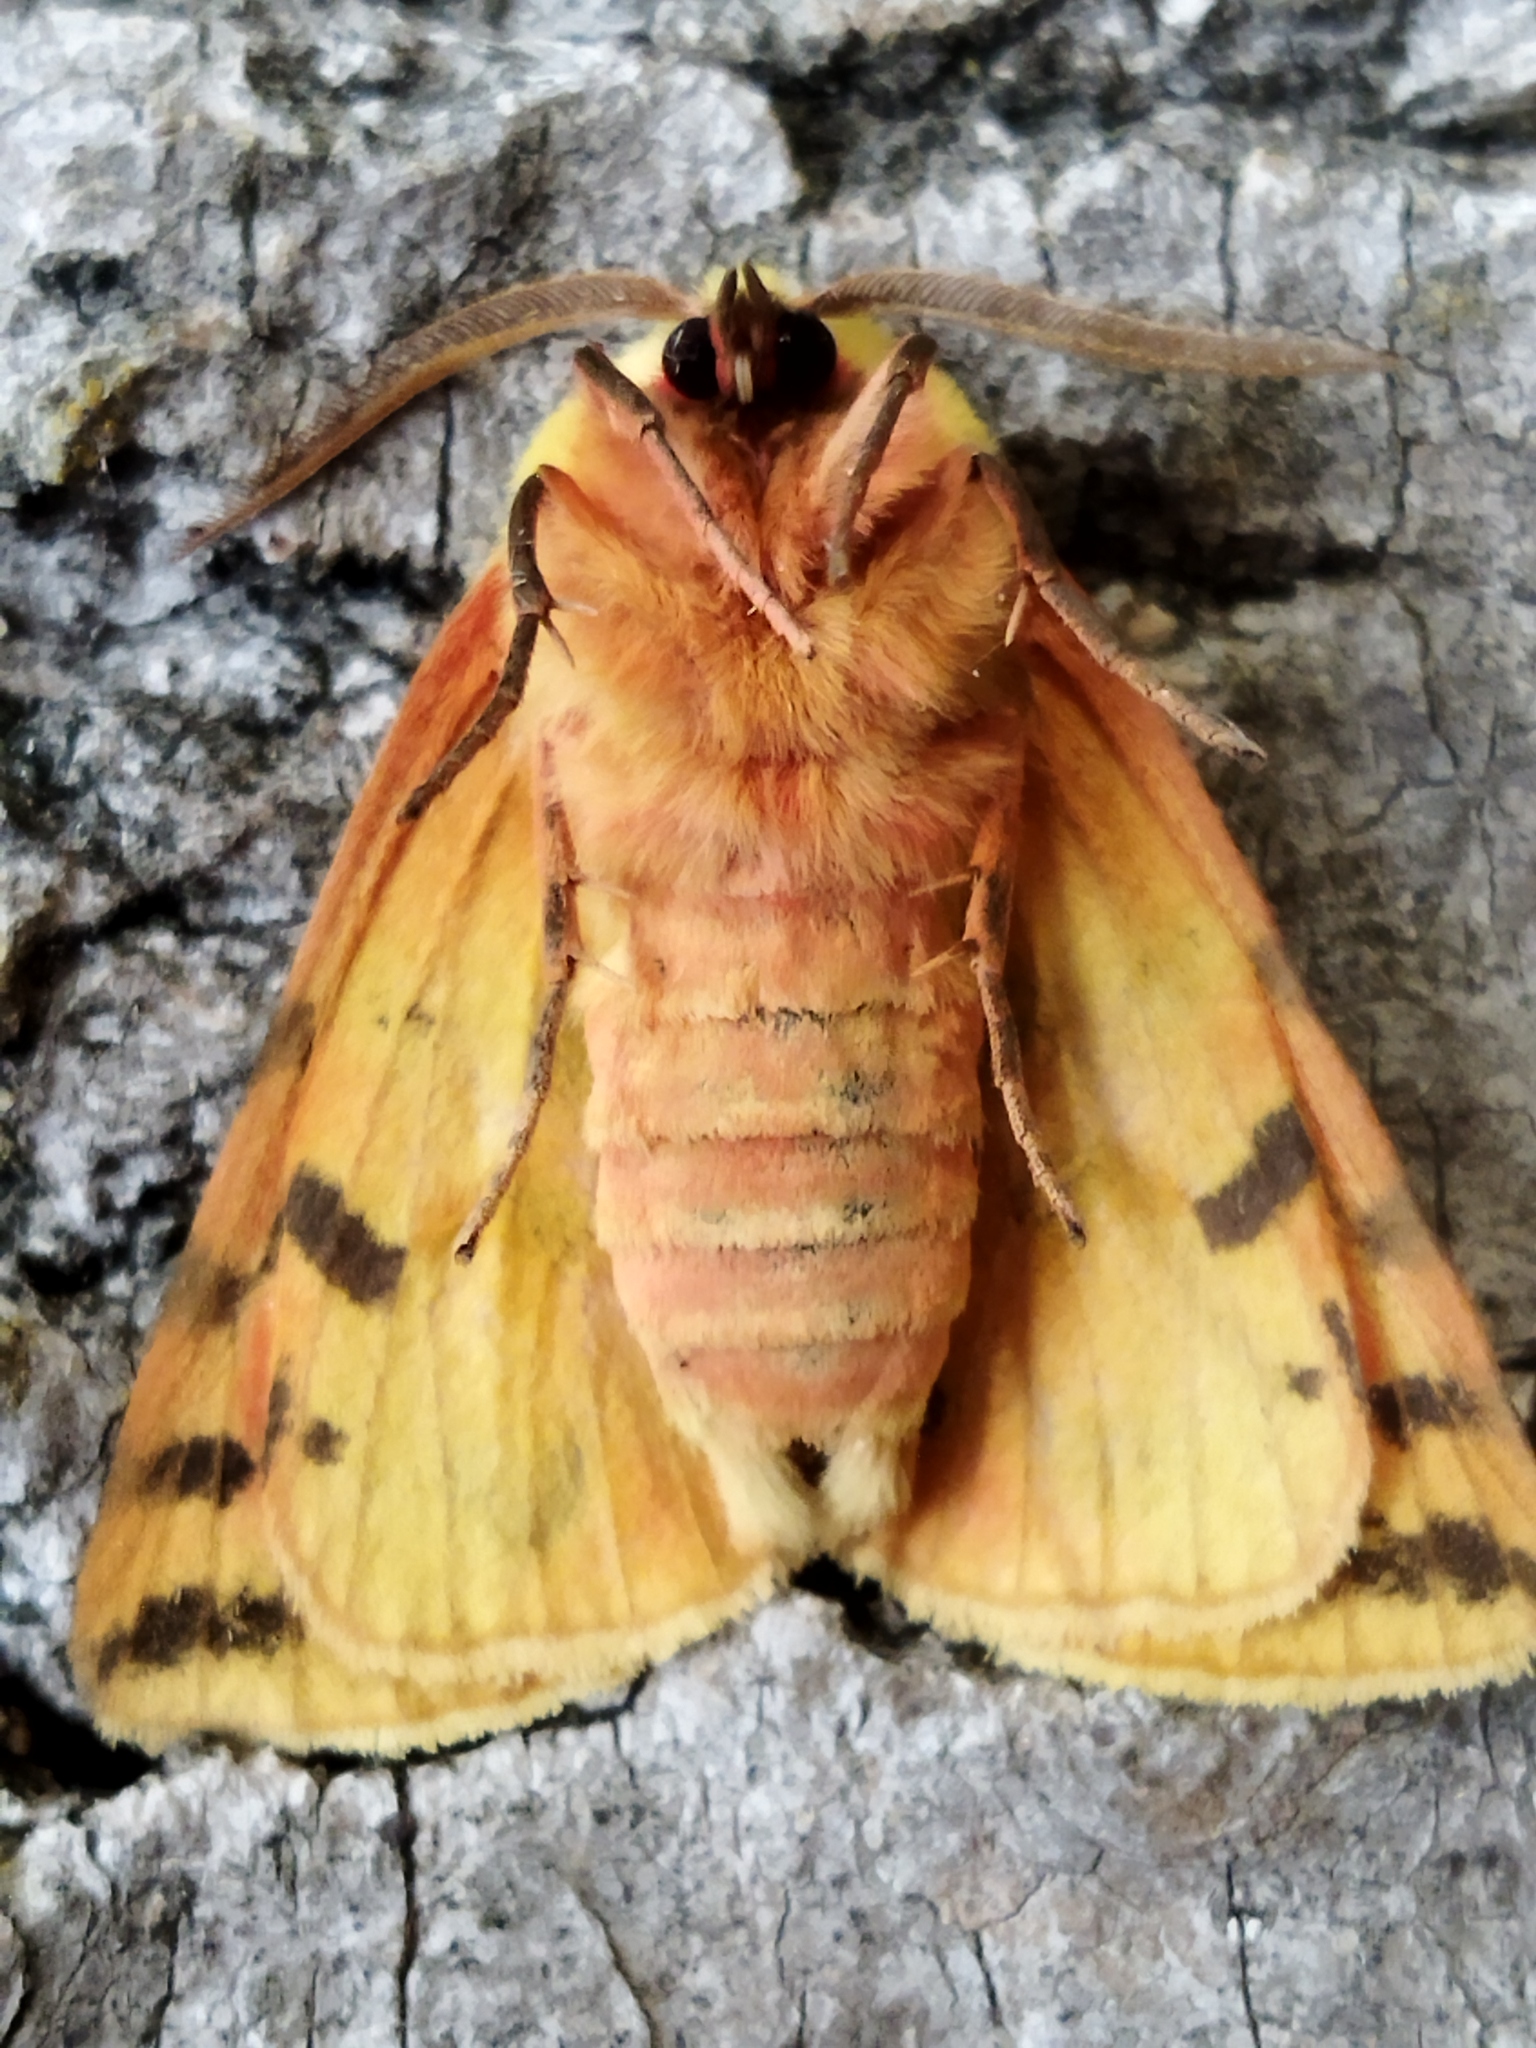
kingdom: Animalia
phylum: Arthropoda
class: Insecta
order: Lepidoptera
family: Erebidae
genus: Rhyparia
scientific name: Rhyparia purpurata
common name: Purple tiger
